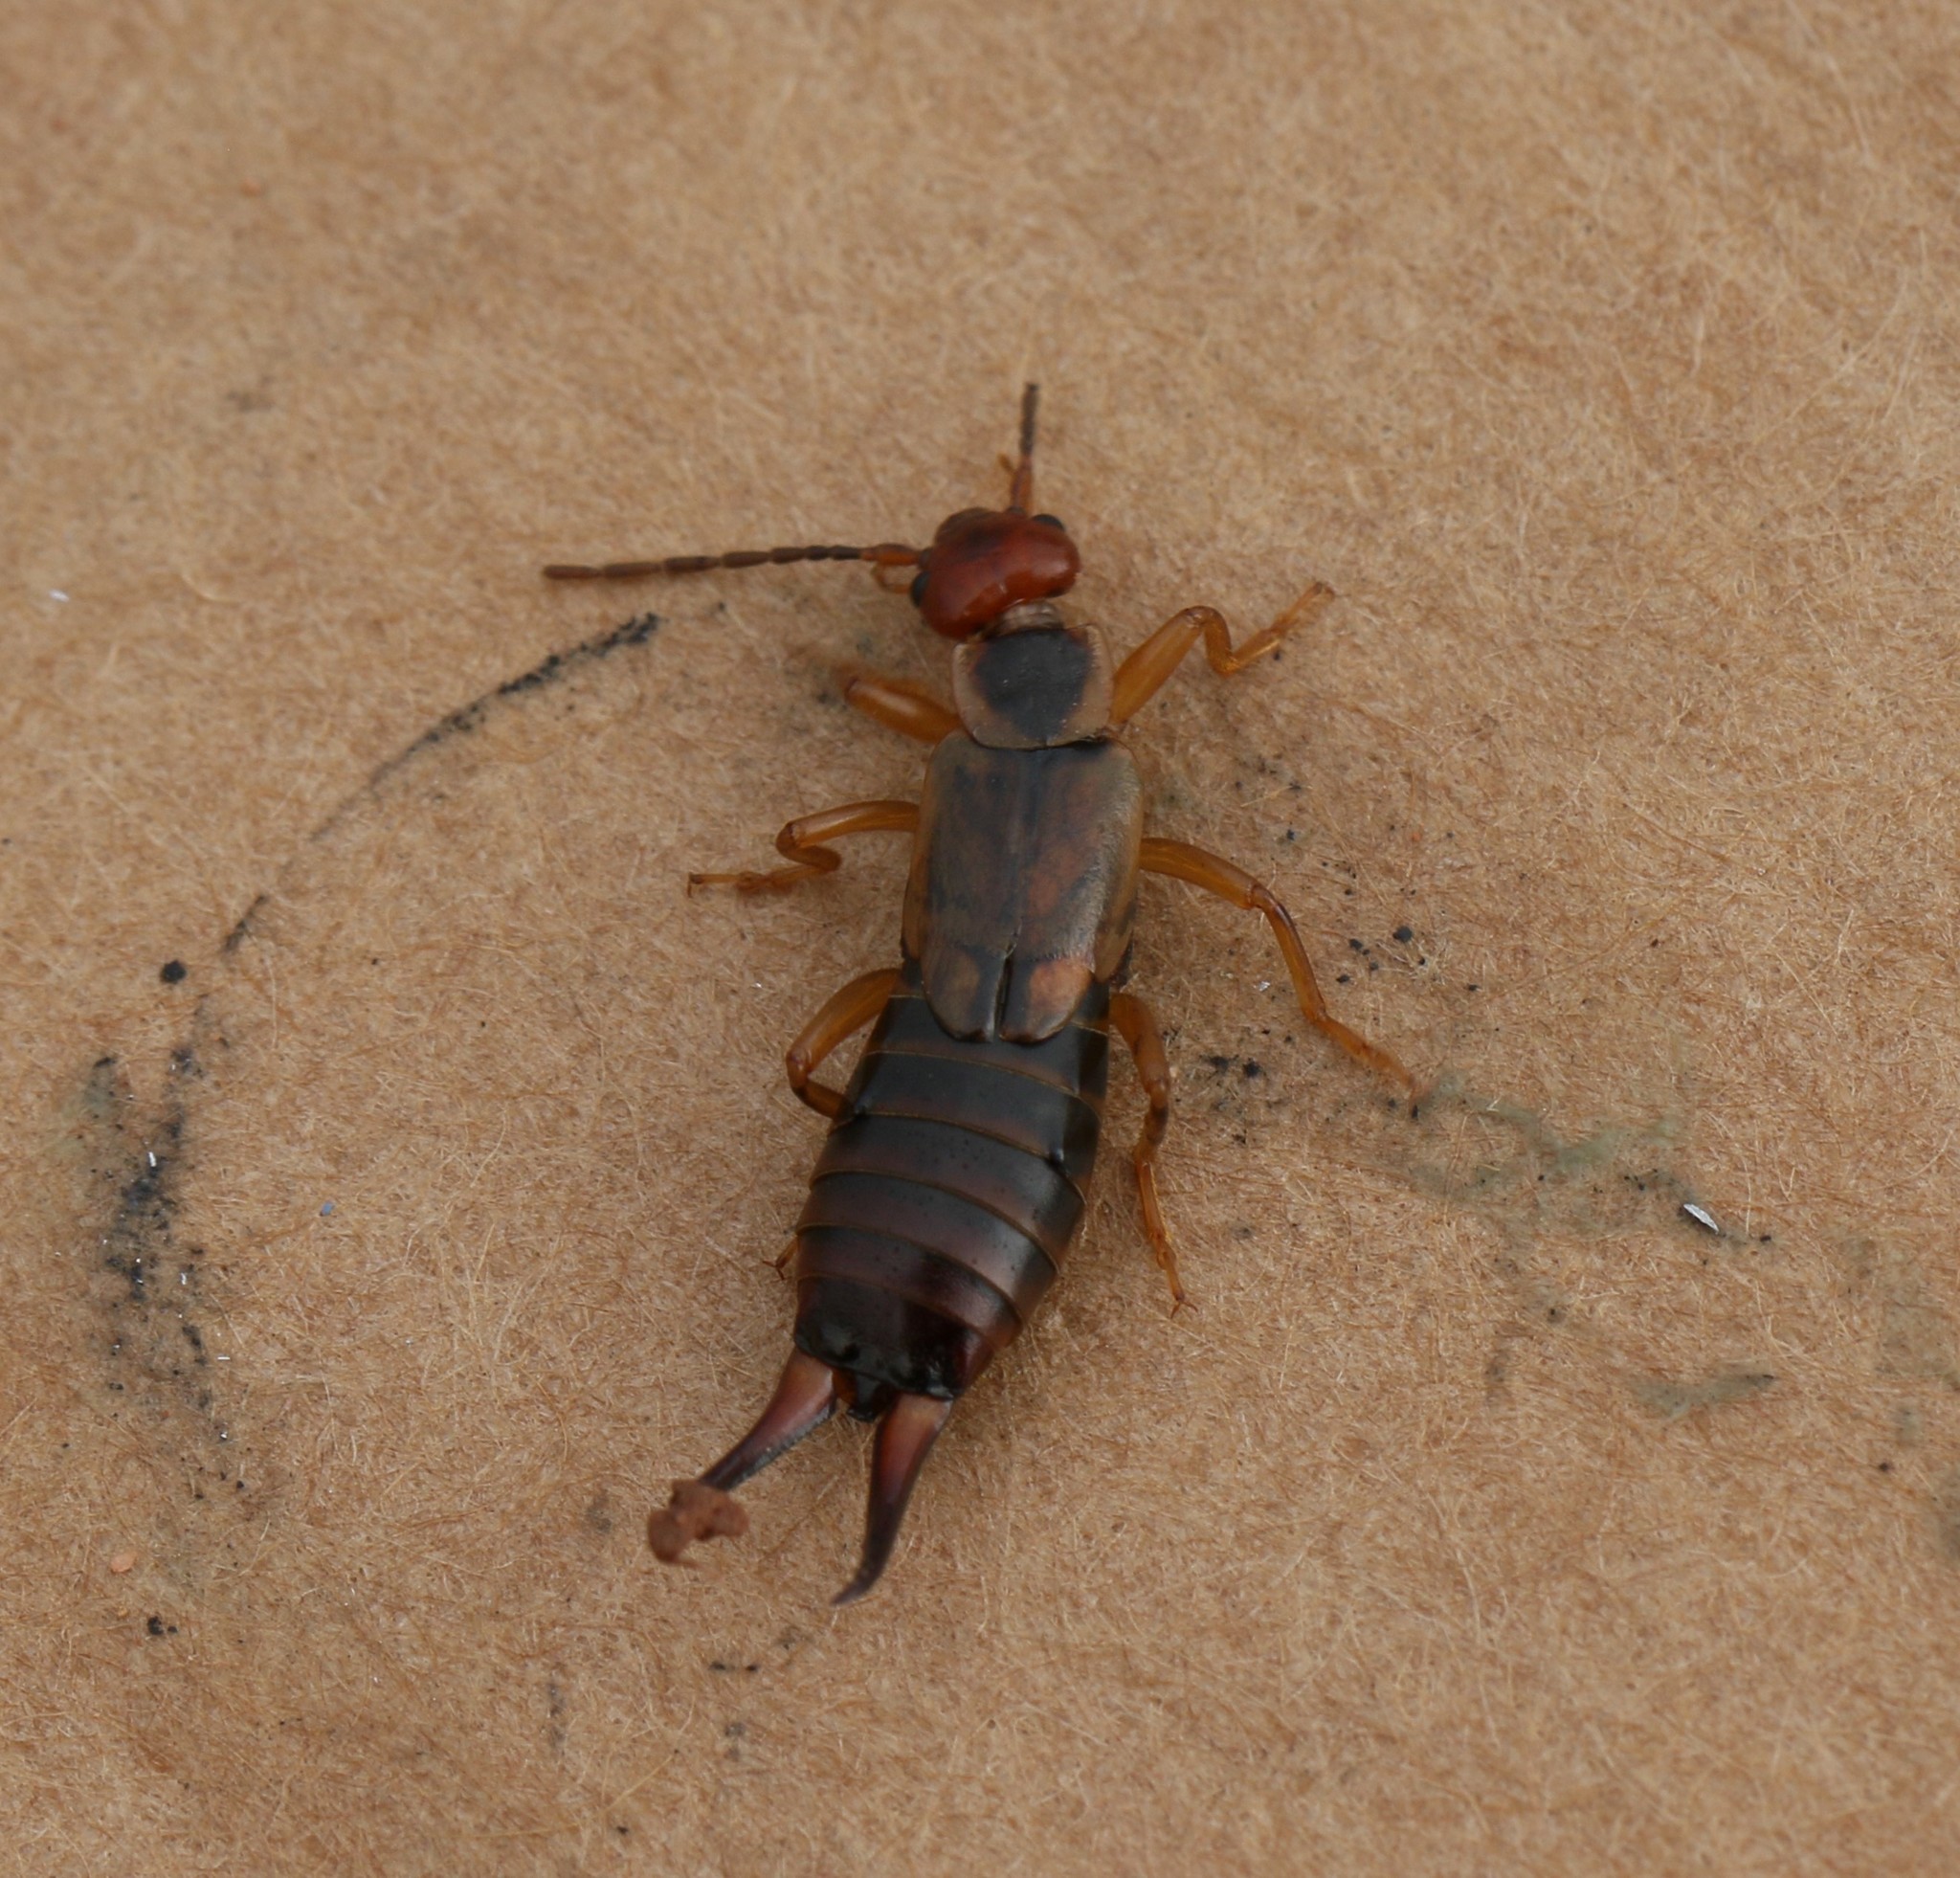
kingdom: Animalia
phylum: Arthropoda
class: Insecta
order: Dermaptera
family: Forficulidae
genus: Forficula
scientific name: Forficula
